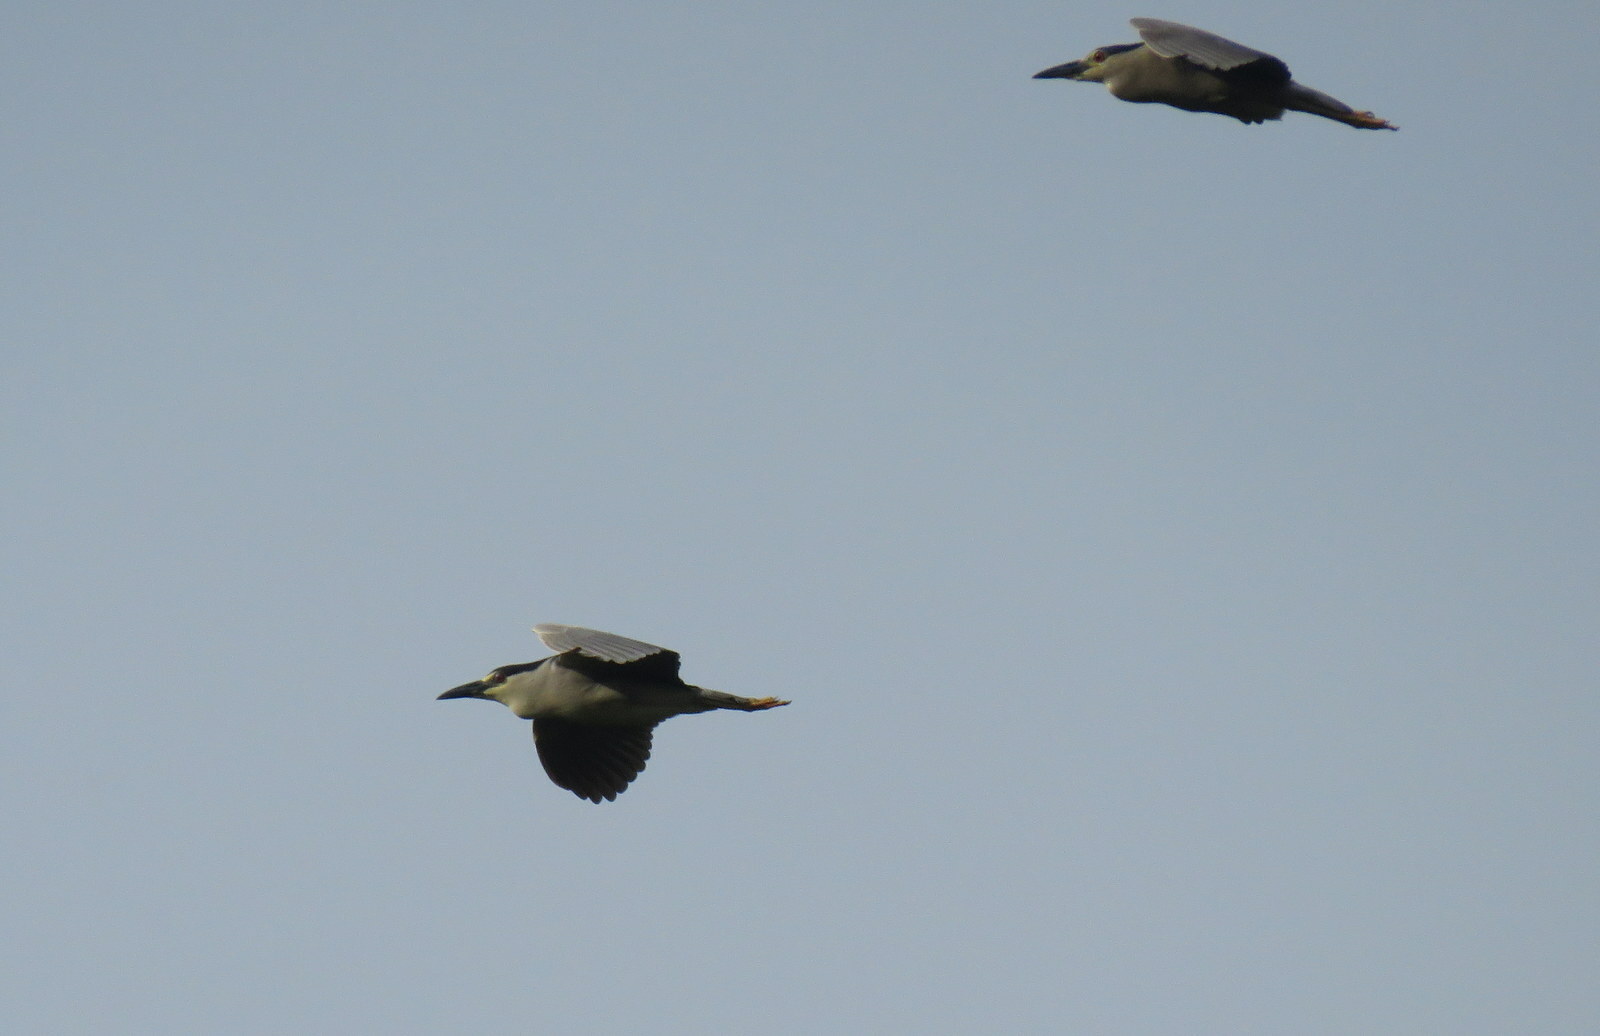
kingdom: Animalia
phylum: Chordata
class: Aves
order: Pelecaniformes
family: Ardeidae
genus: Nycticorax
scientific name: Nycticorax nycticorax
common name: Black-crowned night heron
